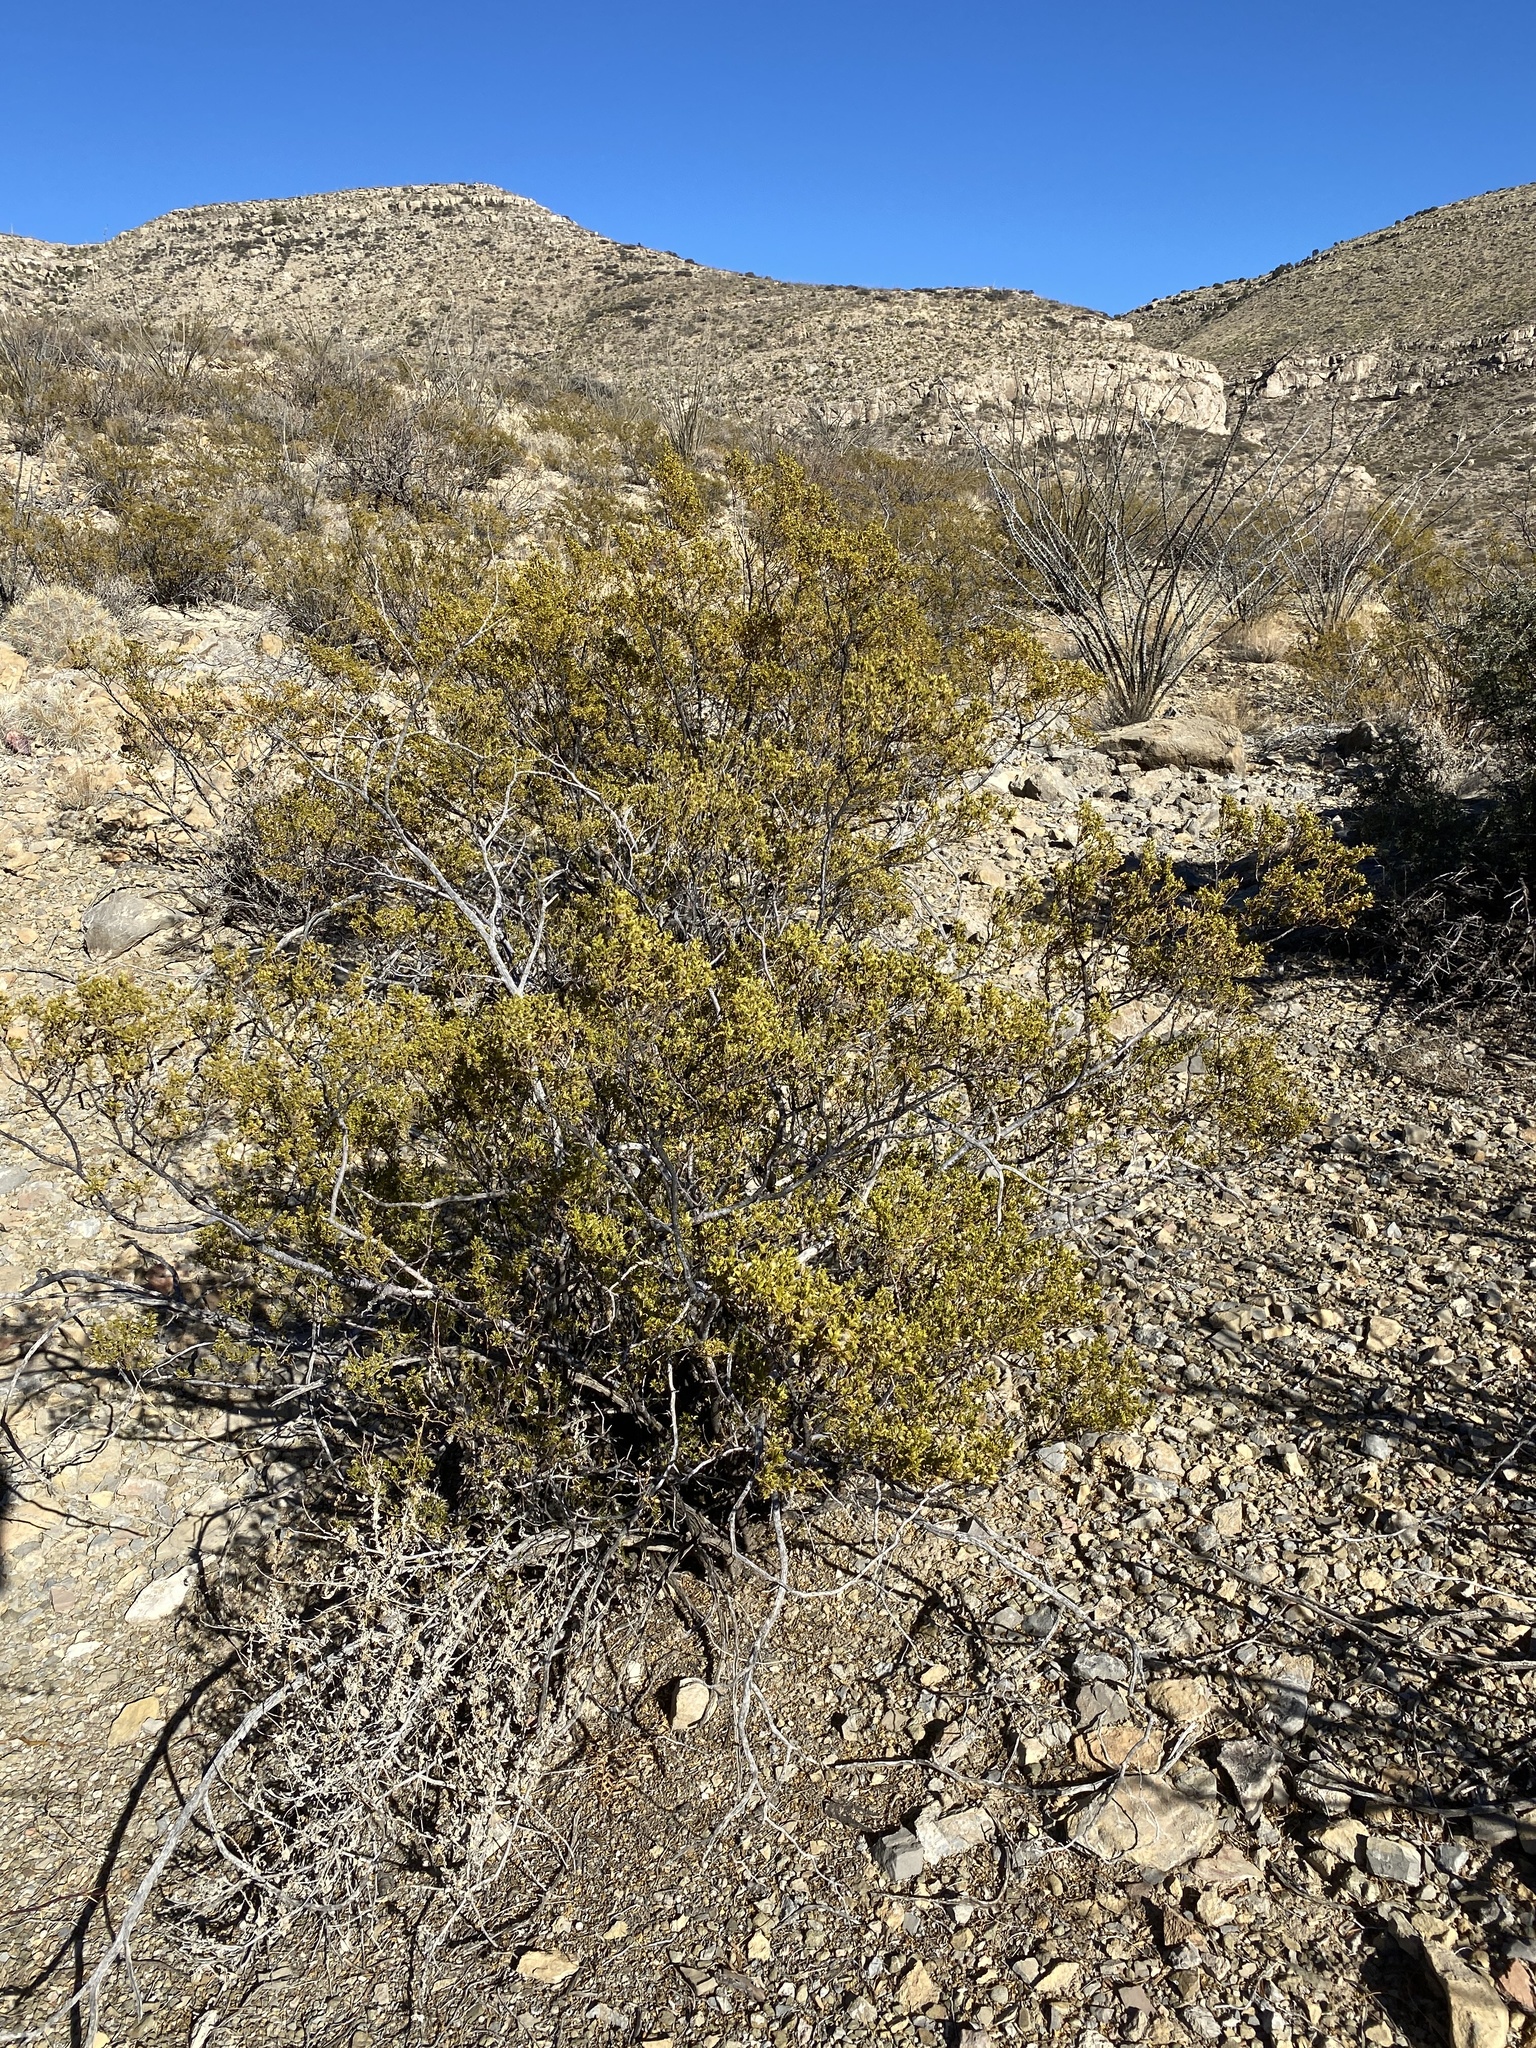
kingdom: Plantae
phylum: Tracheophyta
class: Magnoliopsida
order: Zygophyllales
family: Zygophyllaceae
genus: Larrea
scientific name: Larrea tridentata
